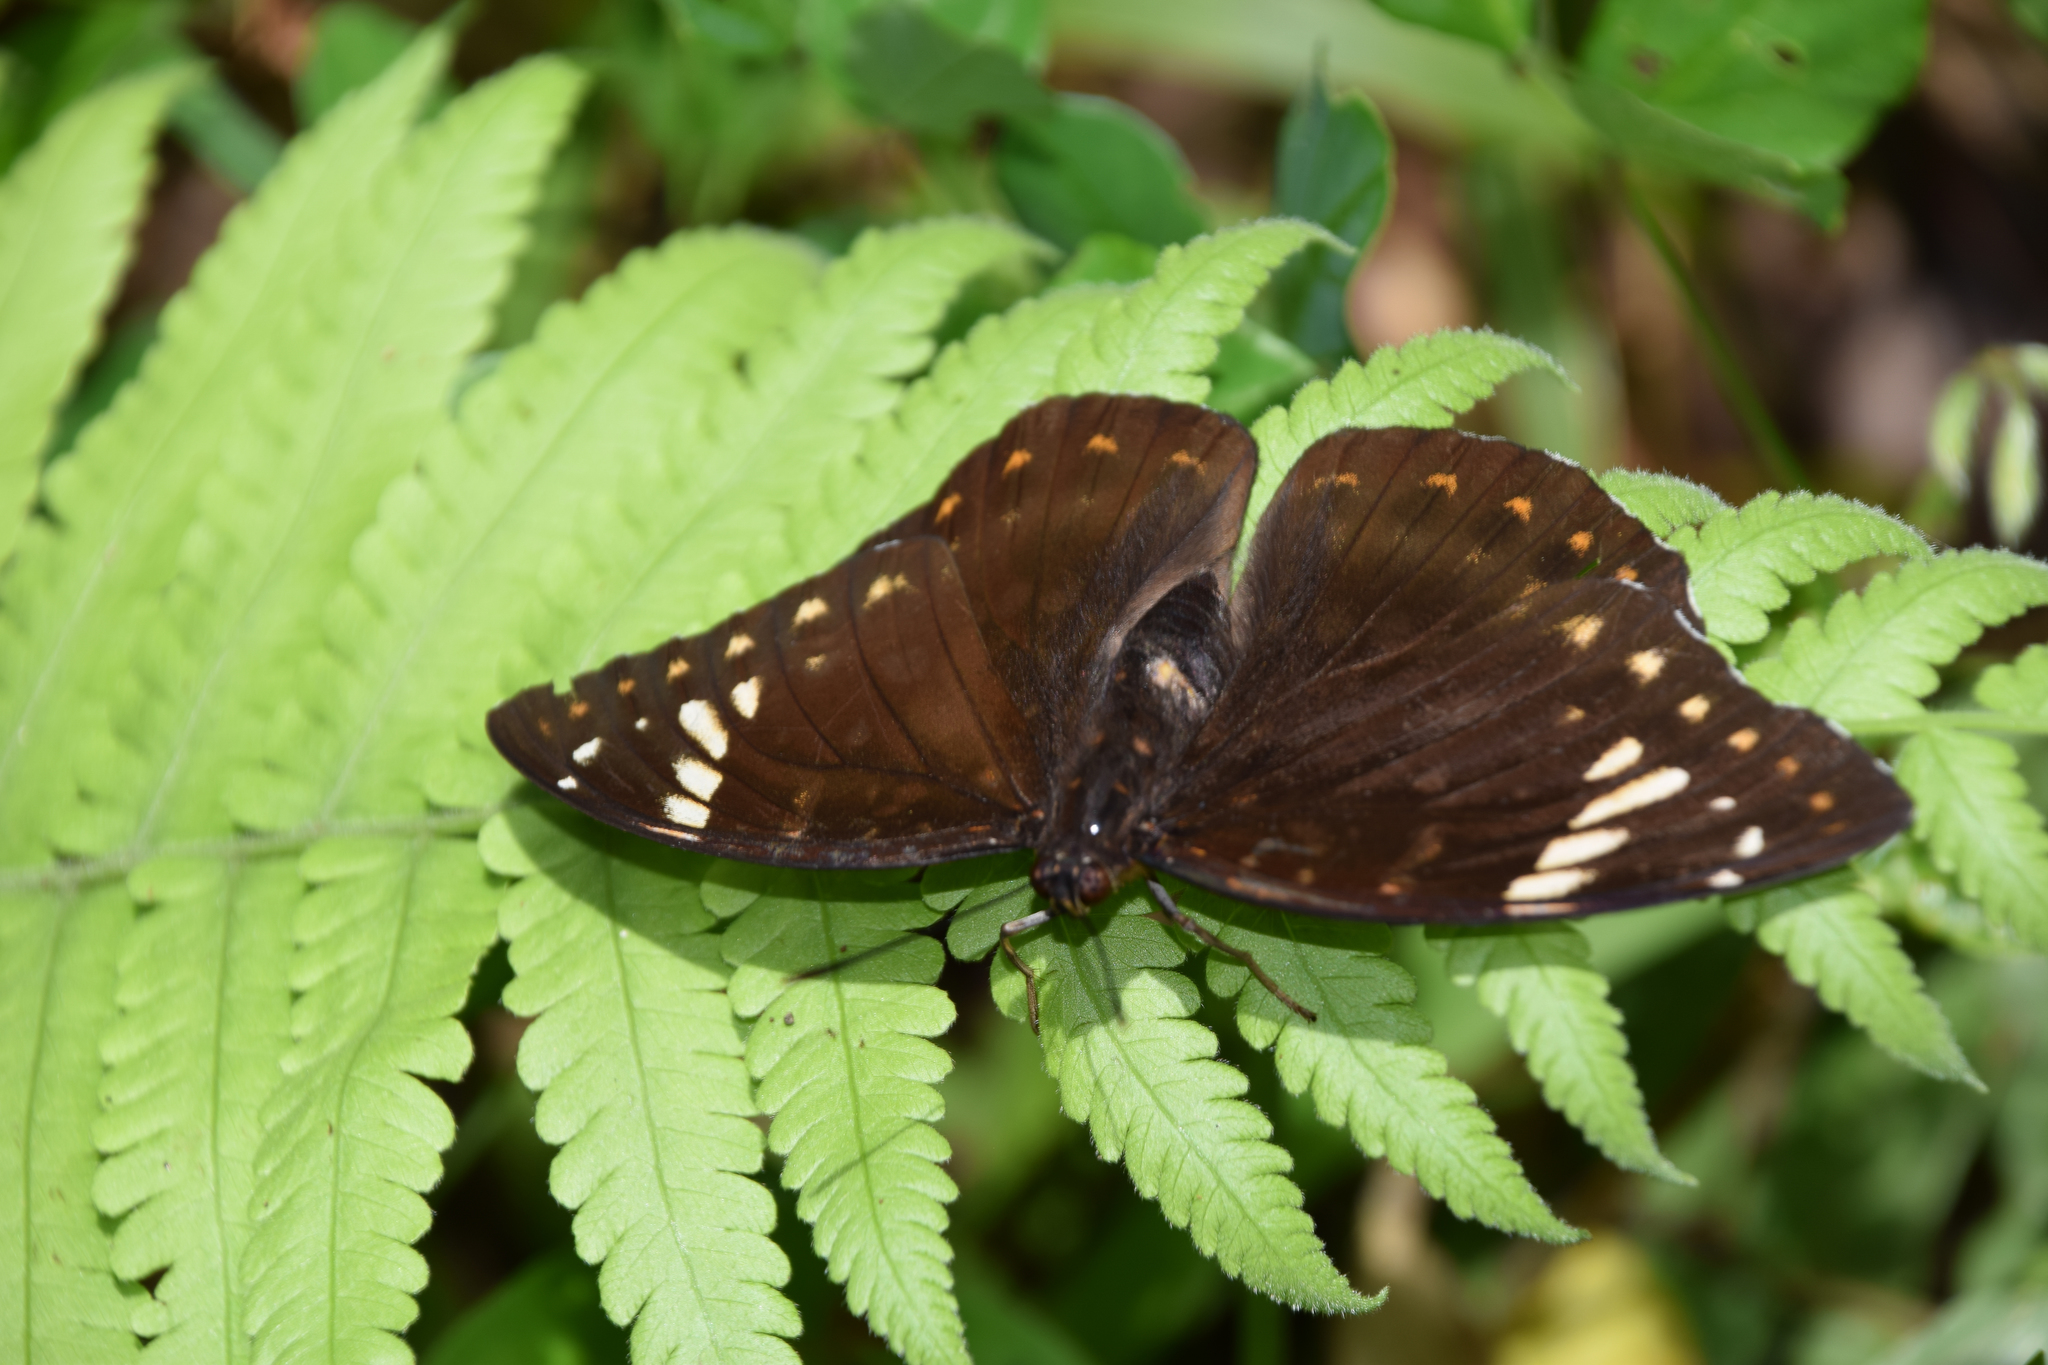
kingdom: Animalia
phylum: Arthropoda
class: Insecta
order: Lepidoptera
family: Nymphalidae
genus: Lexias
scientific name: Lexias aeetes
